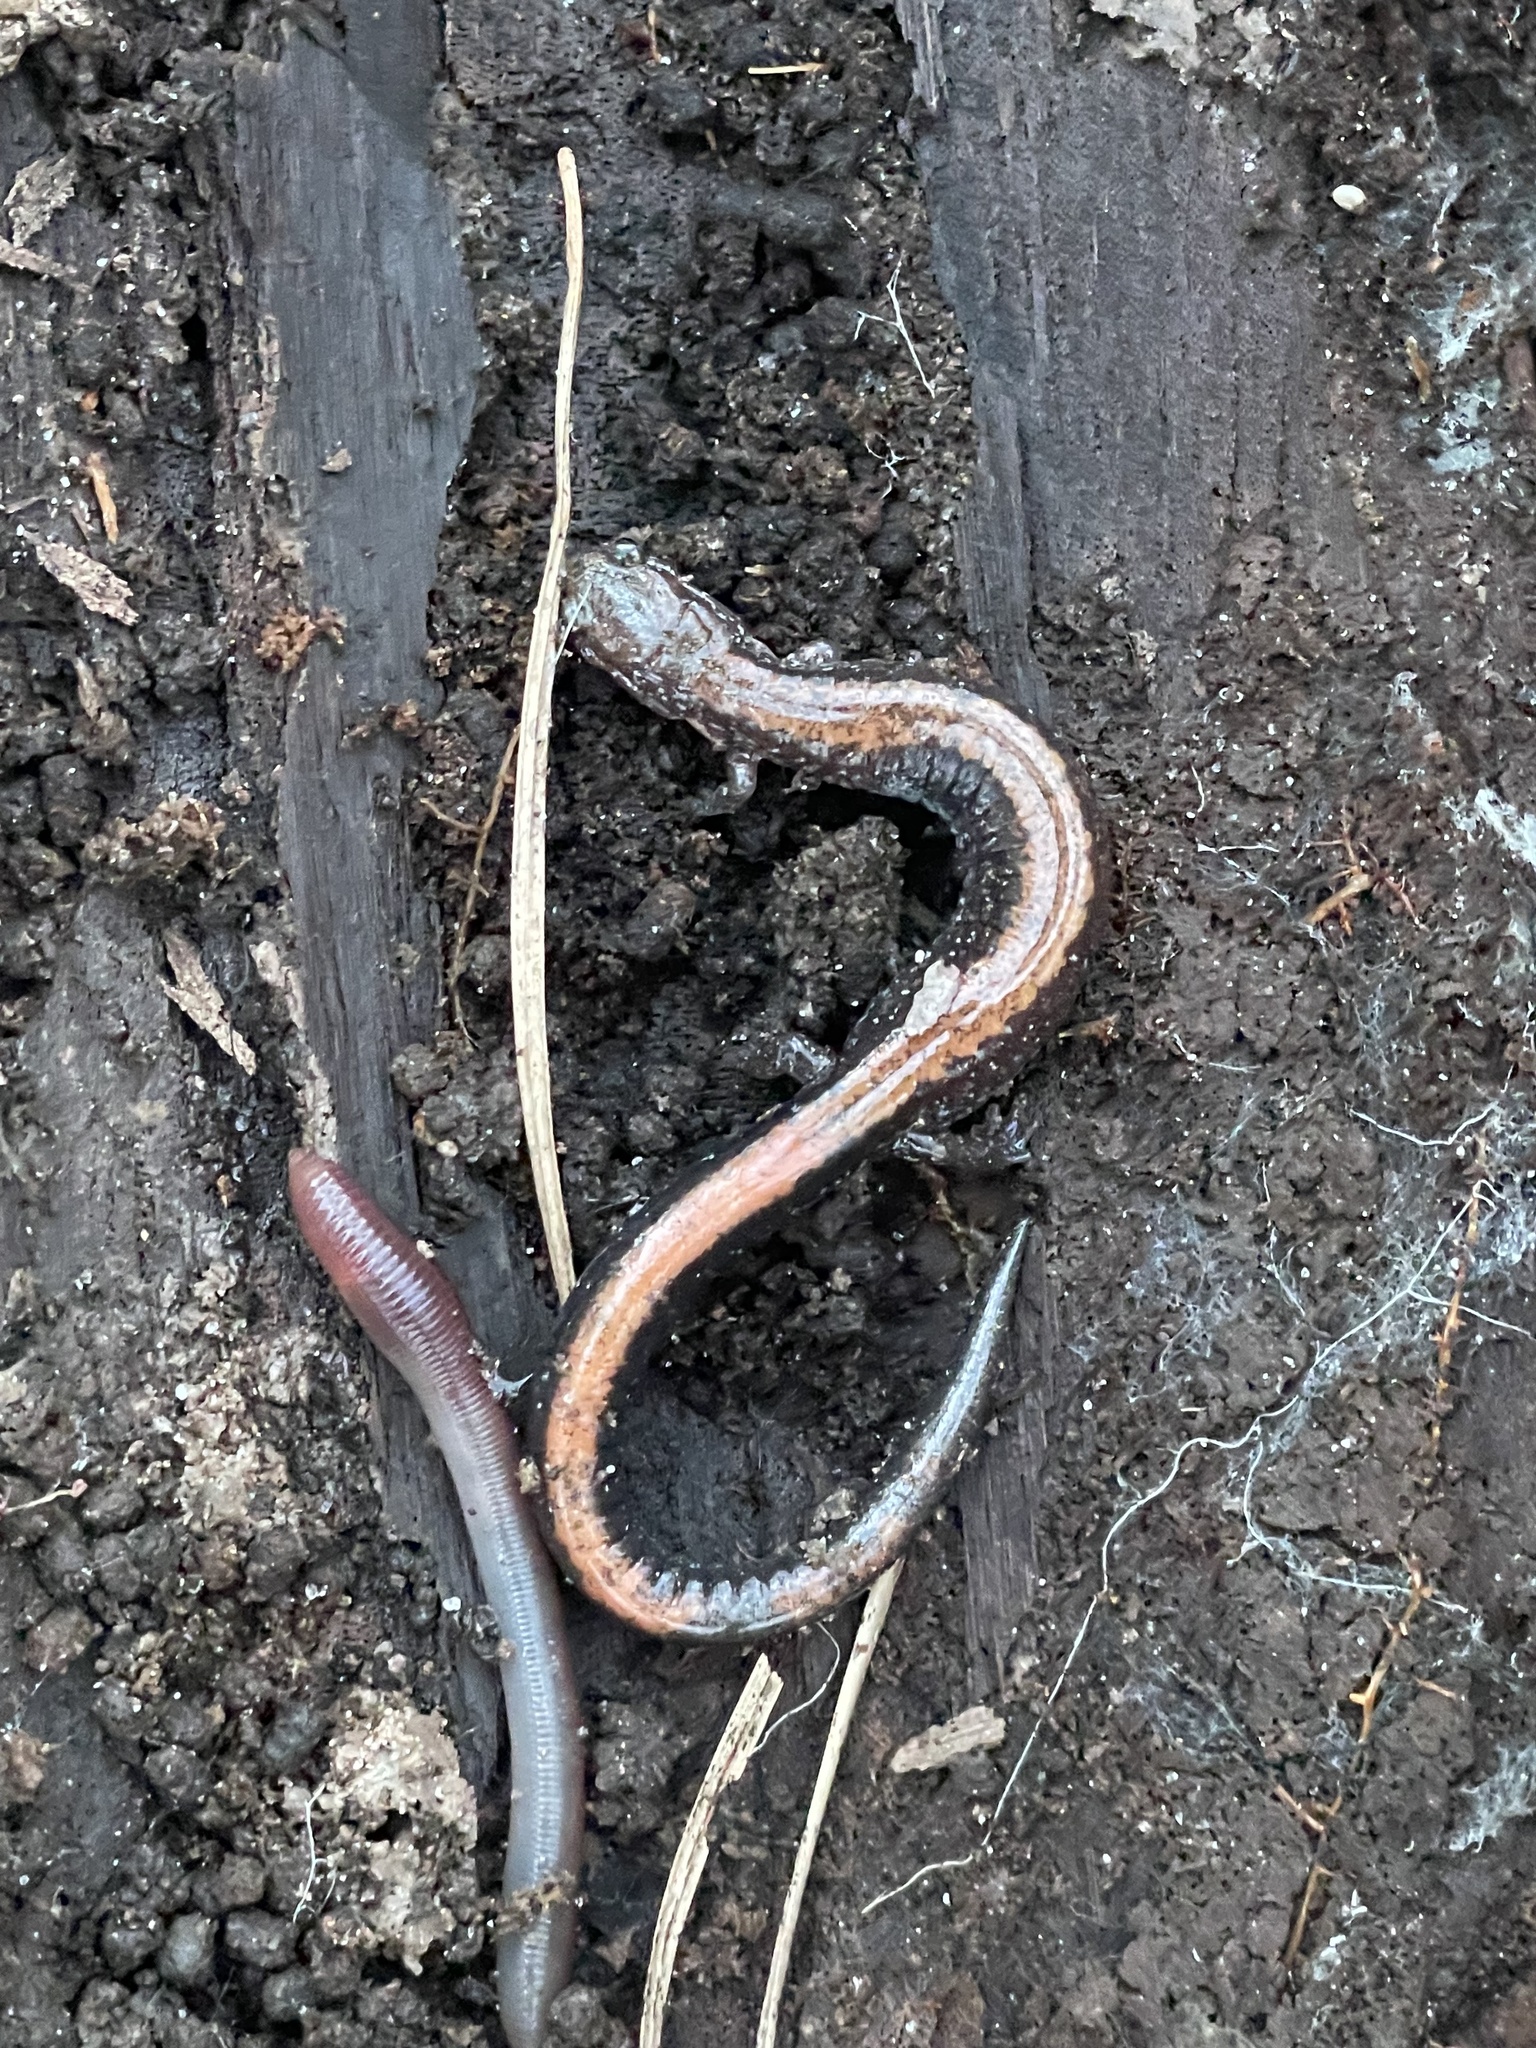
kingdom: Animalia
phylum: Chordata
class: Amphibia
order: Caudata
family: Plethodontidae
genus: Plethodon
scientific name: Plethodon cinereus
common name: Redback salamander
